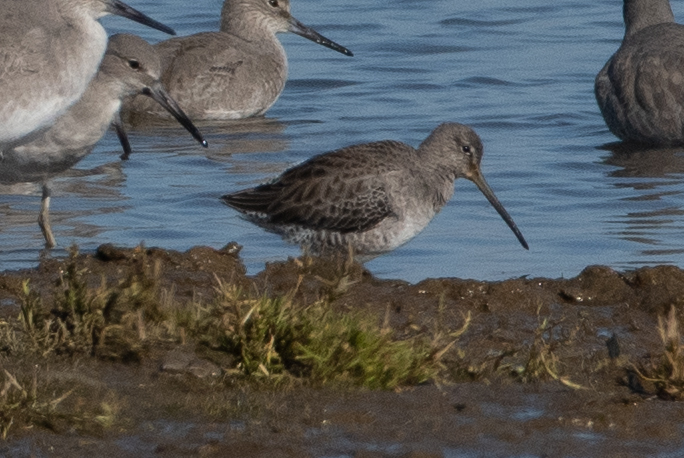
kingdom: Animalia
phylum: Chordata
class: Aves
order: Charadriiformes
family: Scolopacidae
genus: Limnodromus
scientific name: Limnodromus scolopaceus
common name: Long-billed dowitcher
